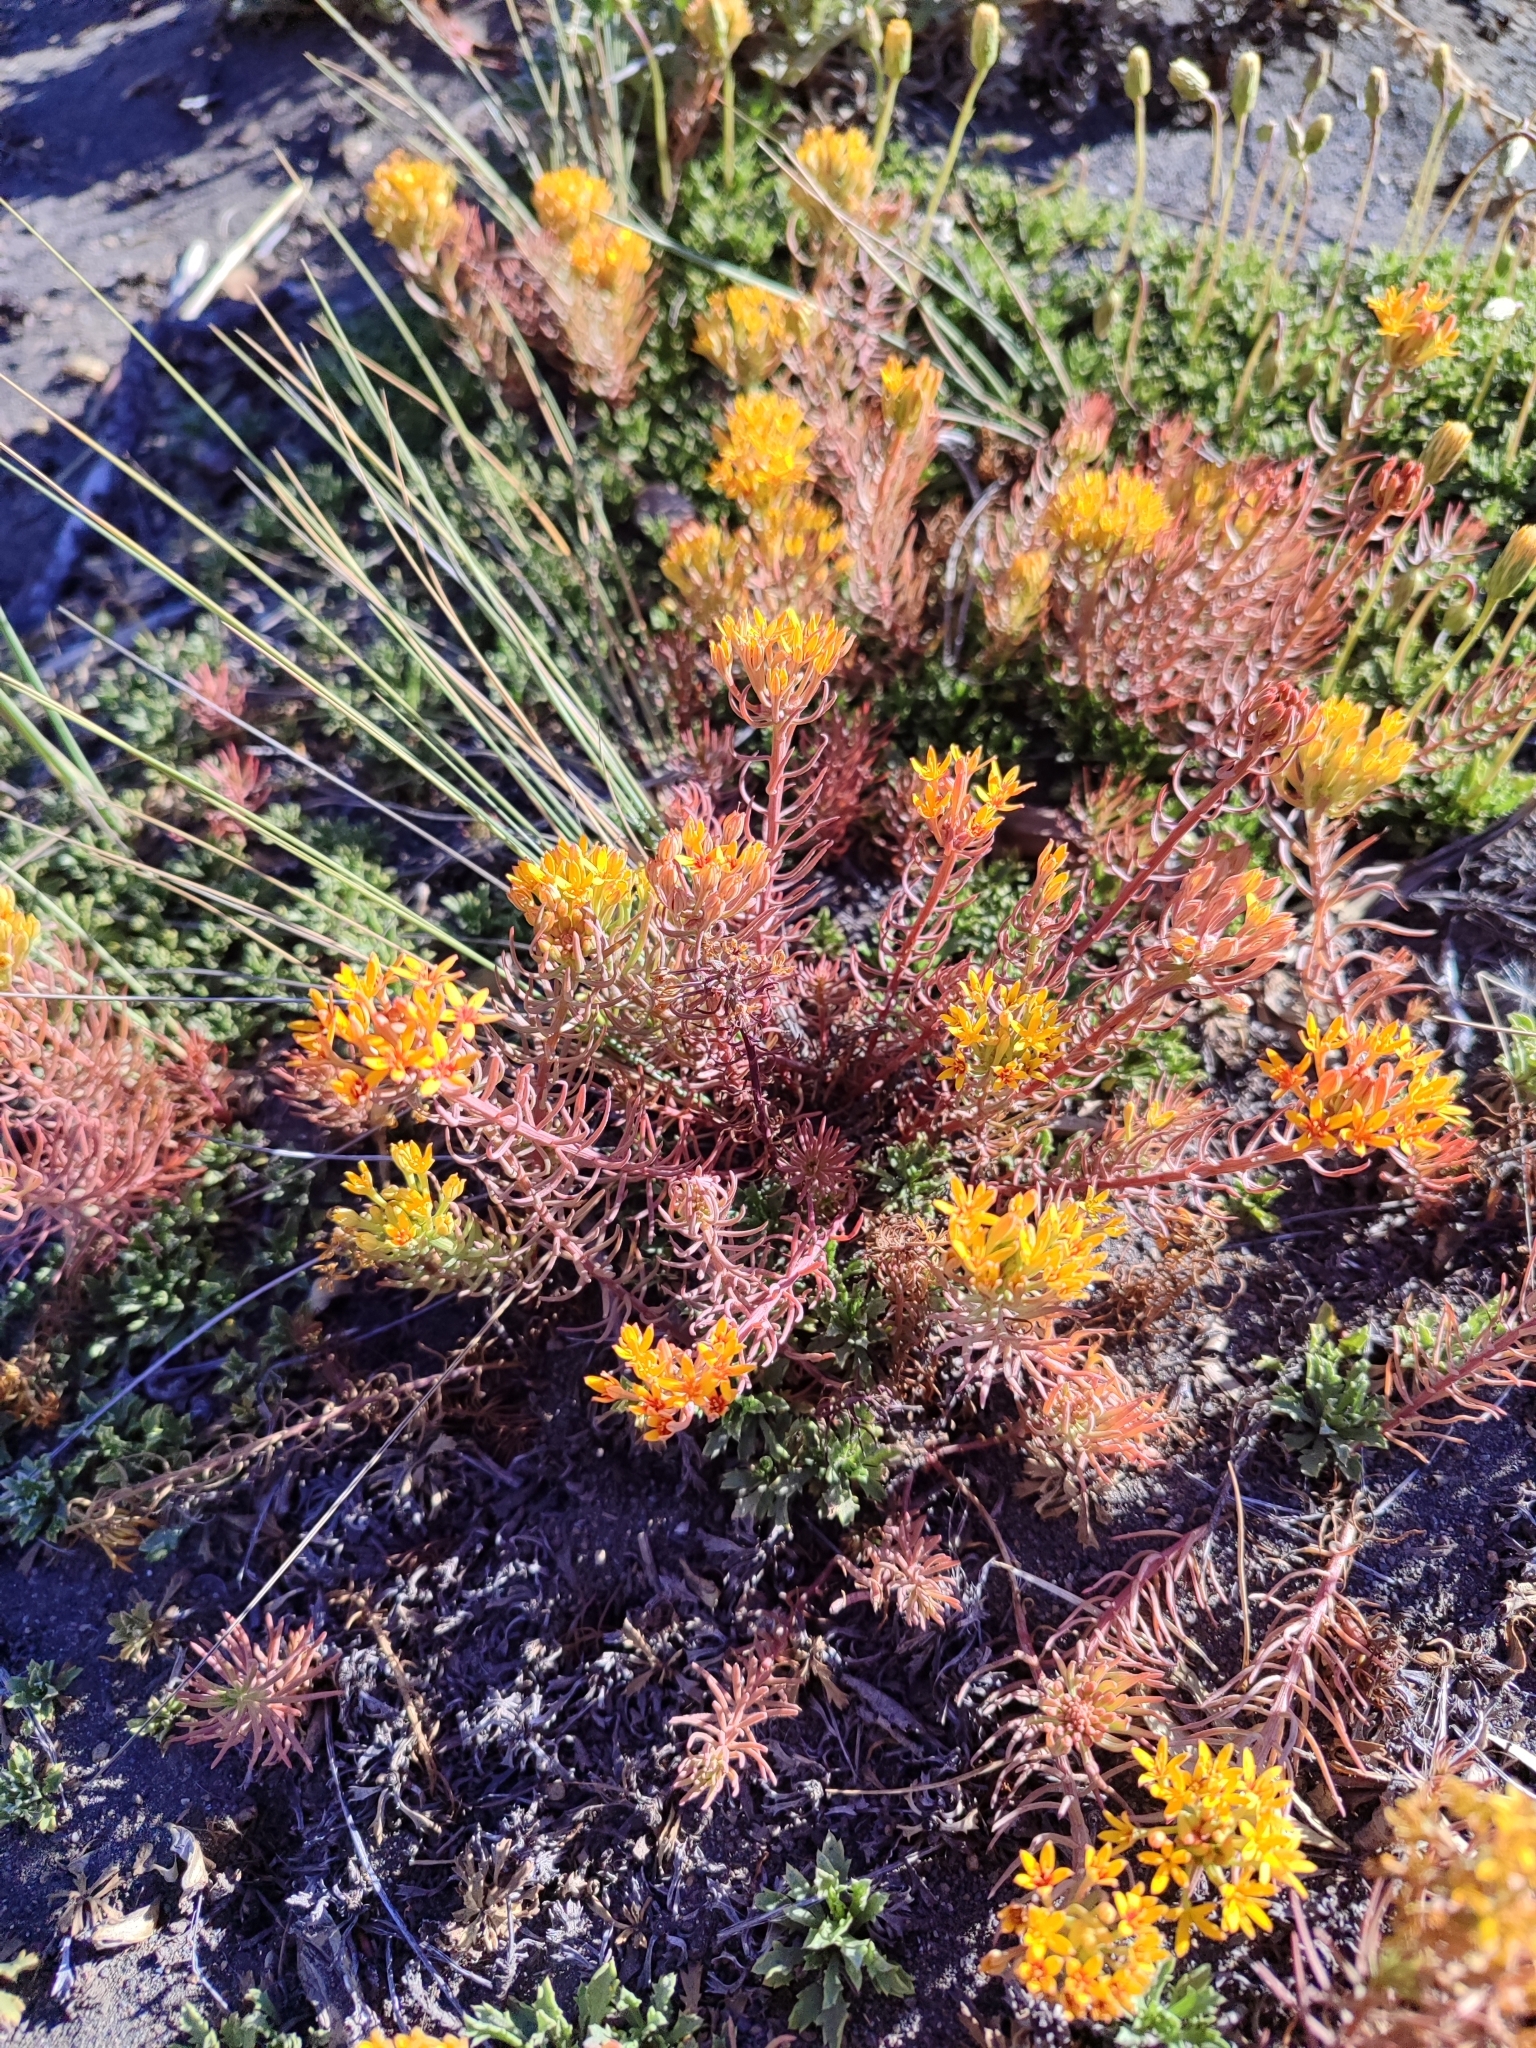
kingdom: Plantae
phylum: Tracheophyta
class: Magnoliopsida
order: Santalales
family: Schoepfiaceae
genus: Quinchamalium
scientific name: Quinchamalium chilense
